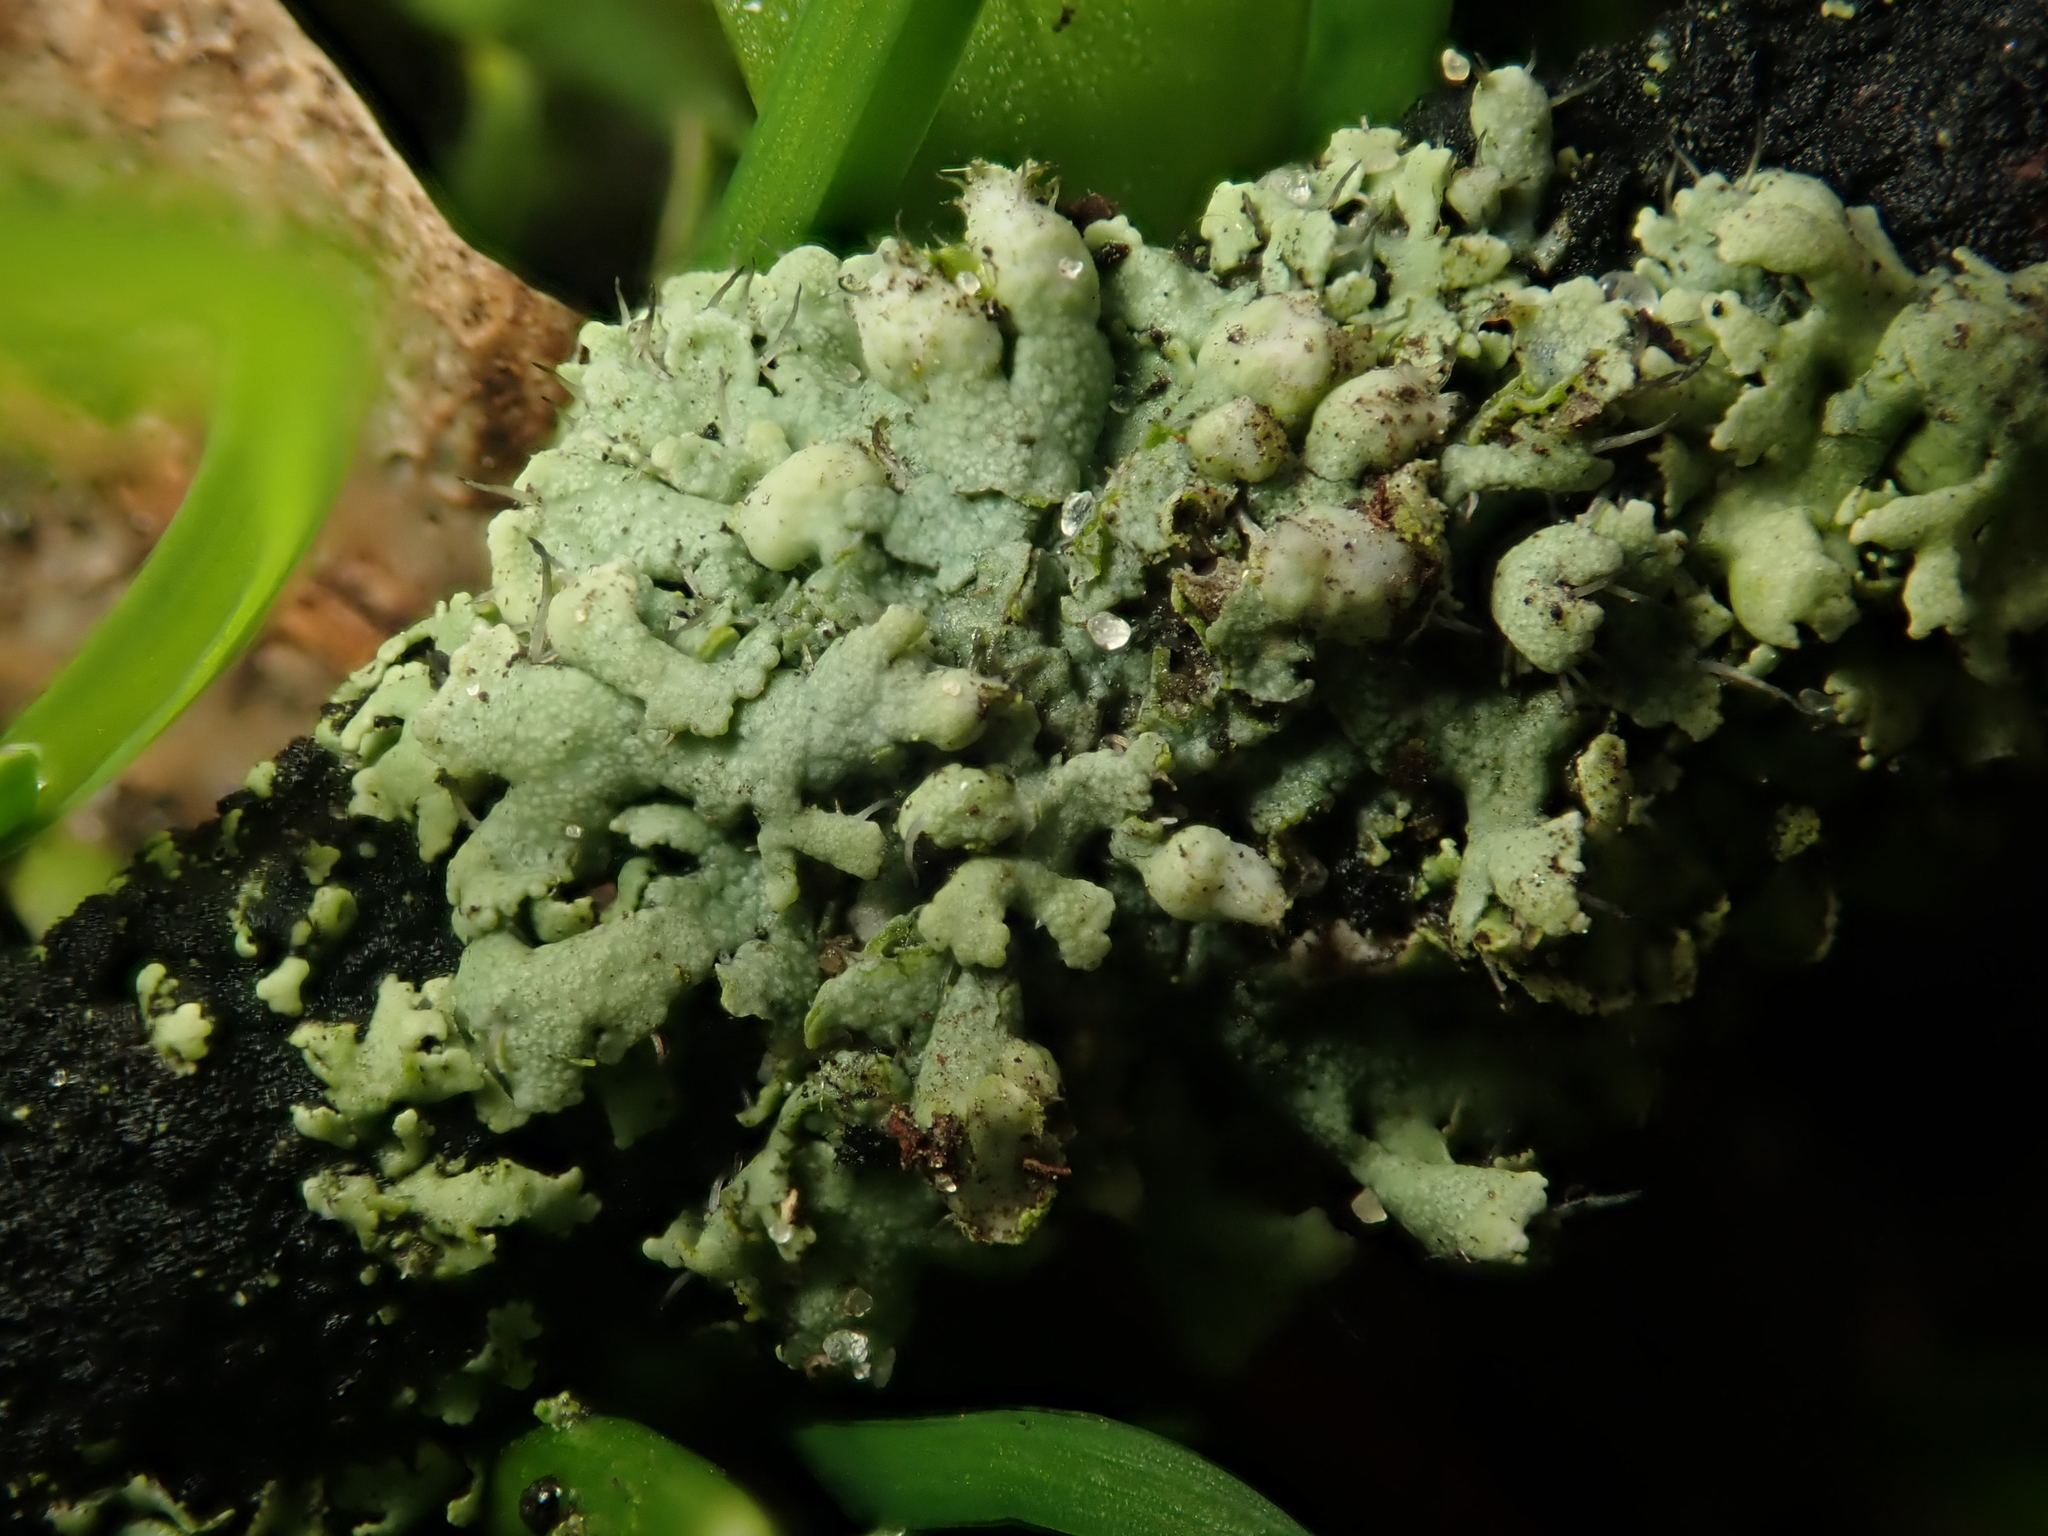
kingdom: Fungi
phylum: Ascomycota
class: Lecanoromycetes
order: Caliciales
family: Physciaceae
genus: Physcia
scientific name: Physcia adscendens
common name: Hooded rosette lichen
